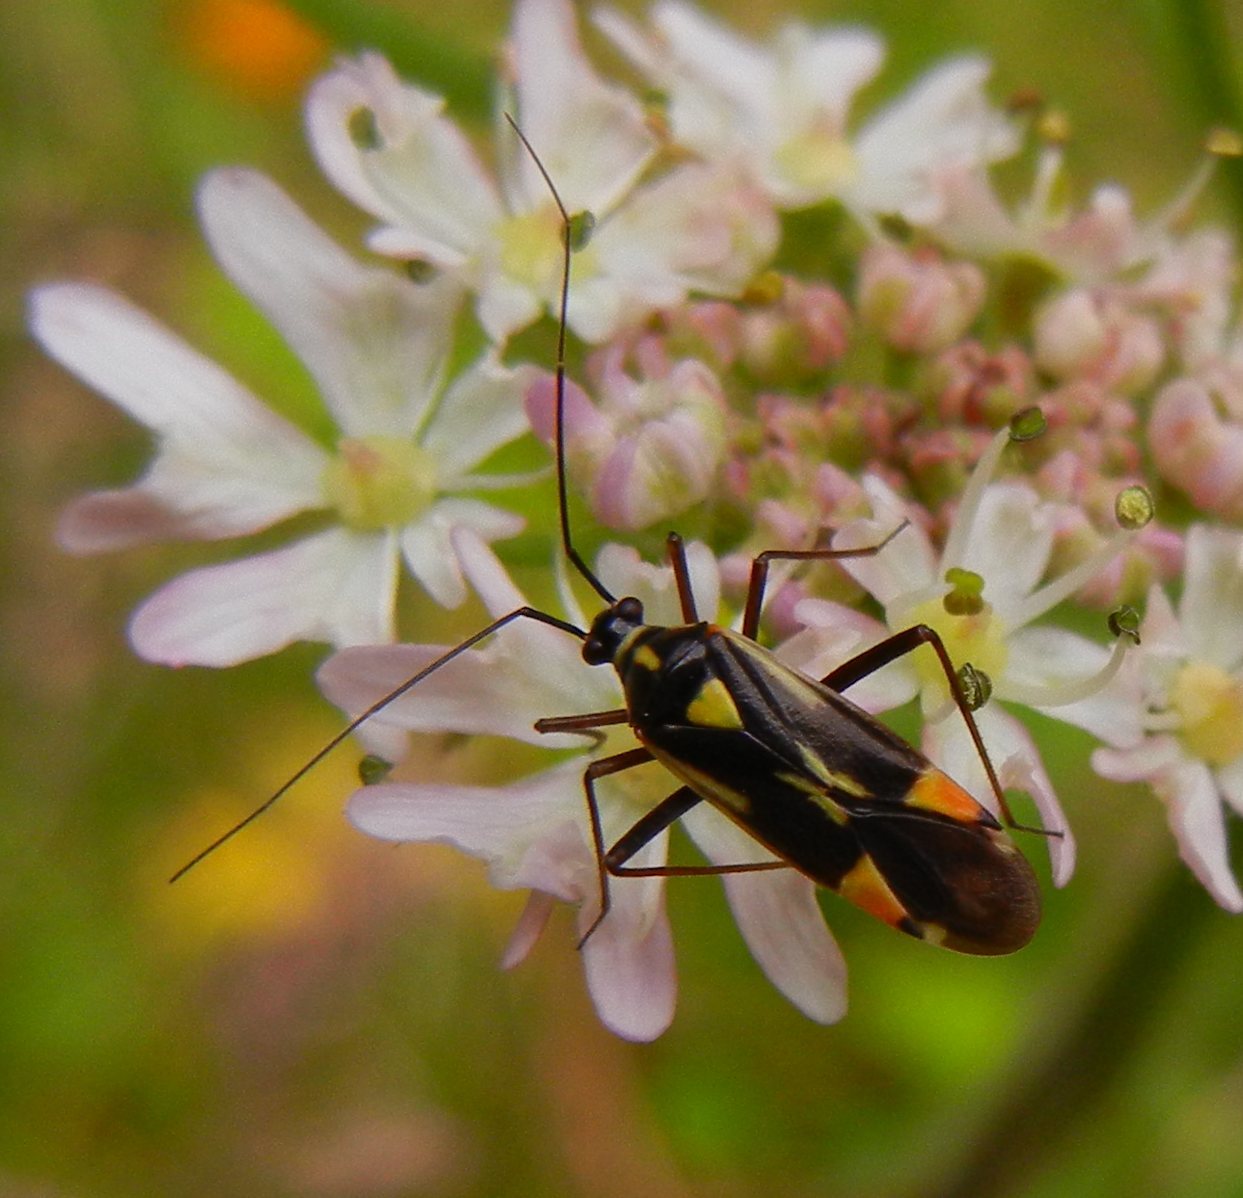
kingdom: Animalia
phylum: Arthropoda
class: Insecta
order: Hemiptera
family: Miridae
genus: Grypocoris
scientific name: Grypocoris stysi
